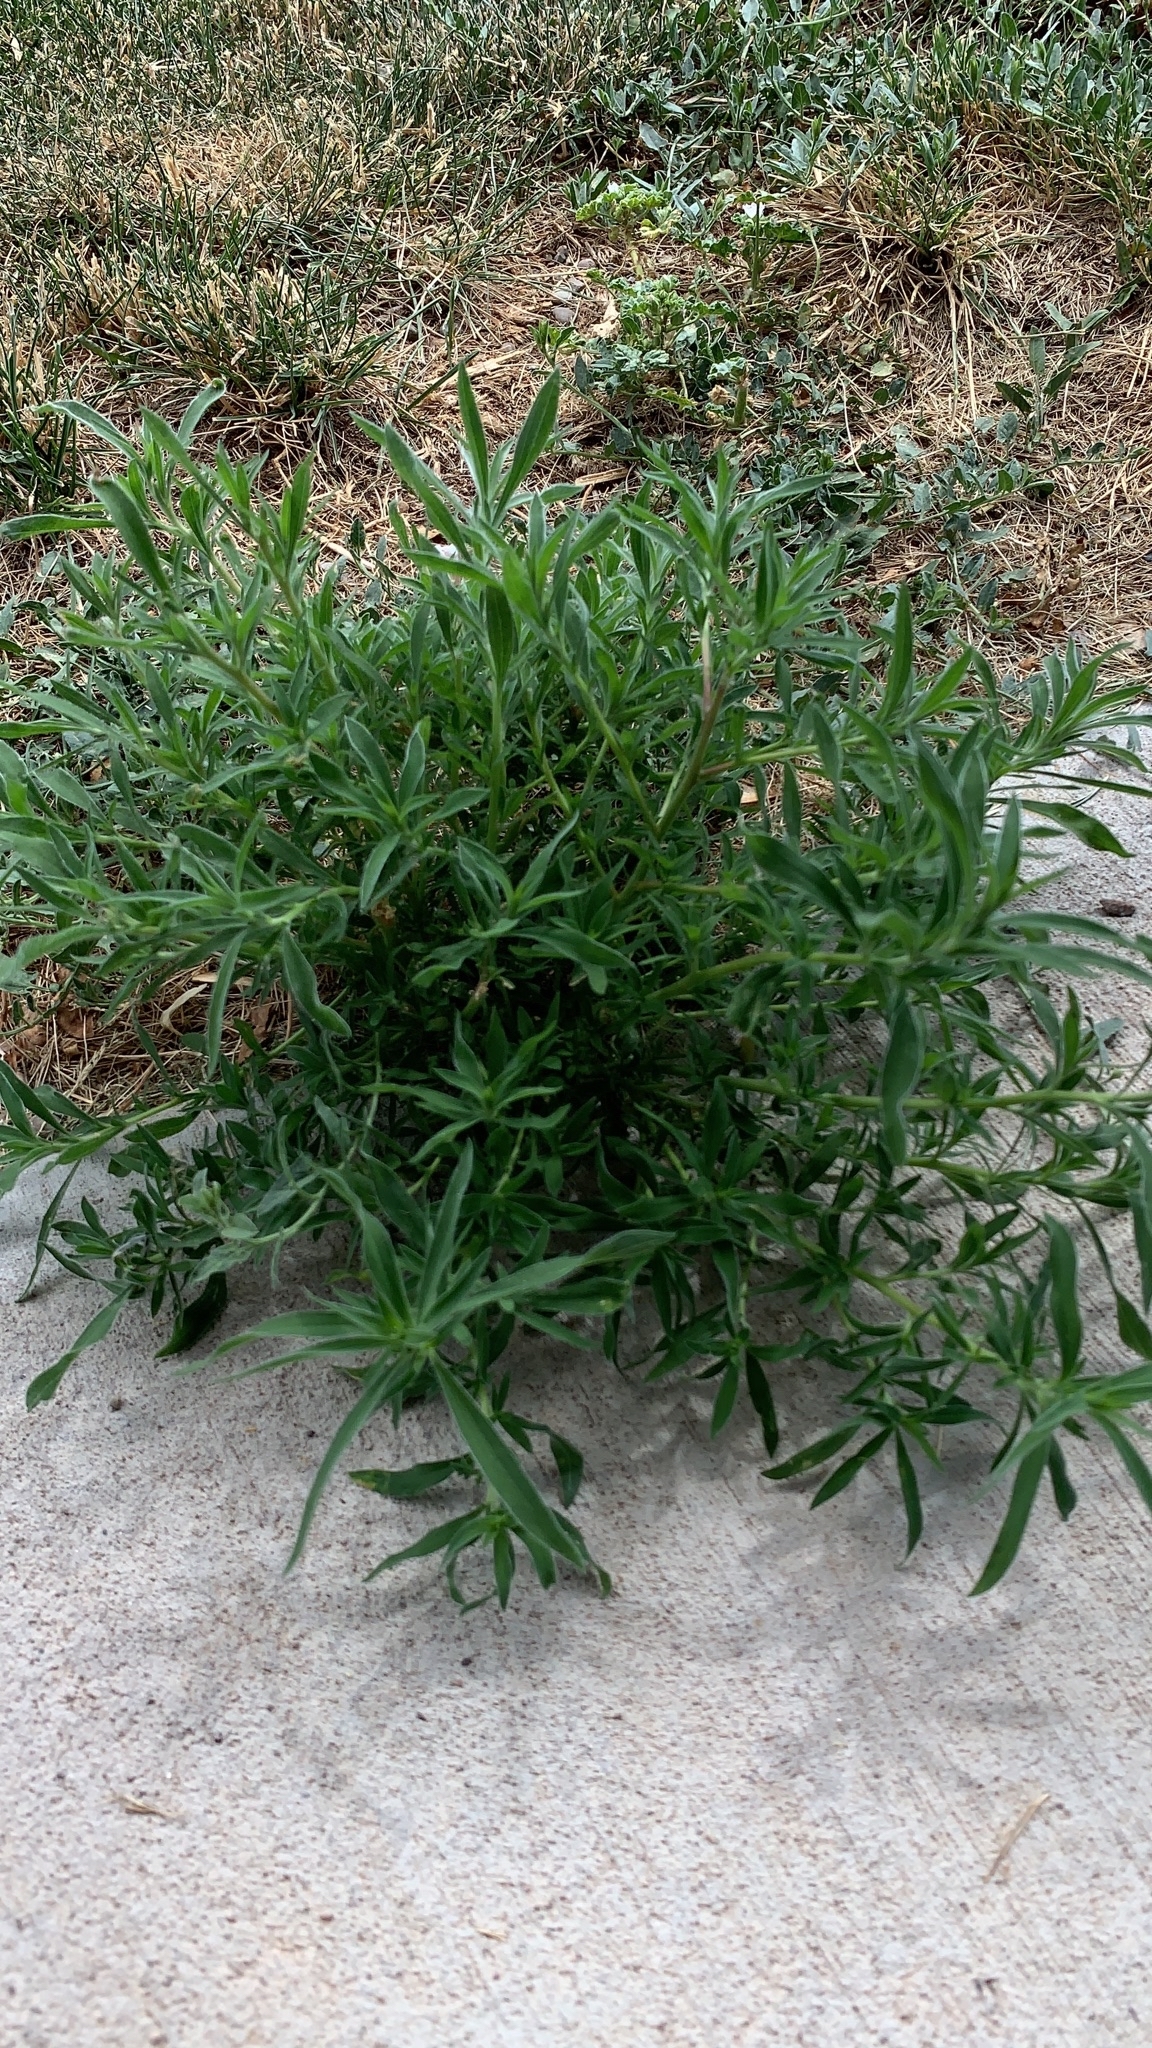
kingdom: Plantae
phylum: Tracheophyta
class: Magnoliopsida
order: Caryophyllales
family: Amaranthaceae
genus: Bassia
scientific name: Bassia scoparia
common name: Belvedere
